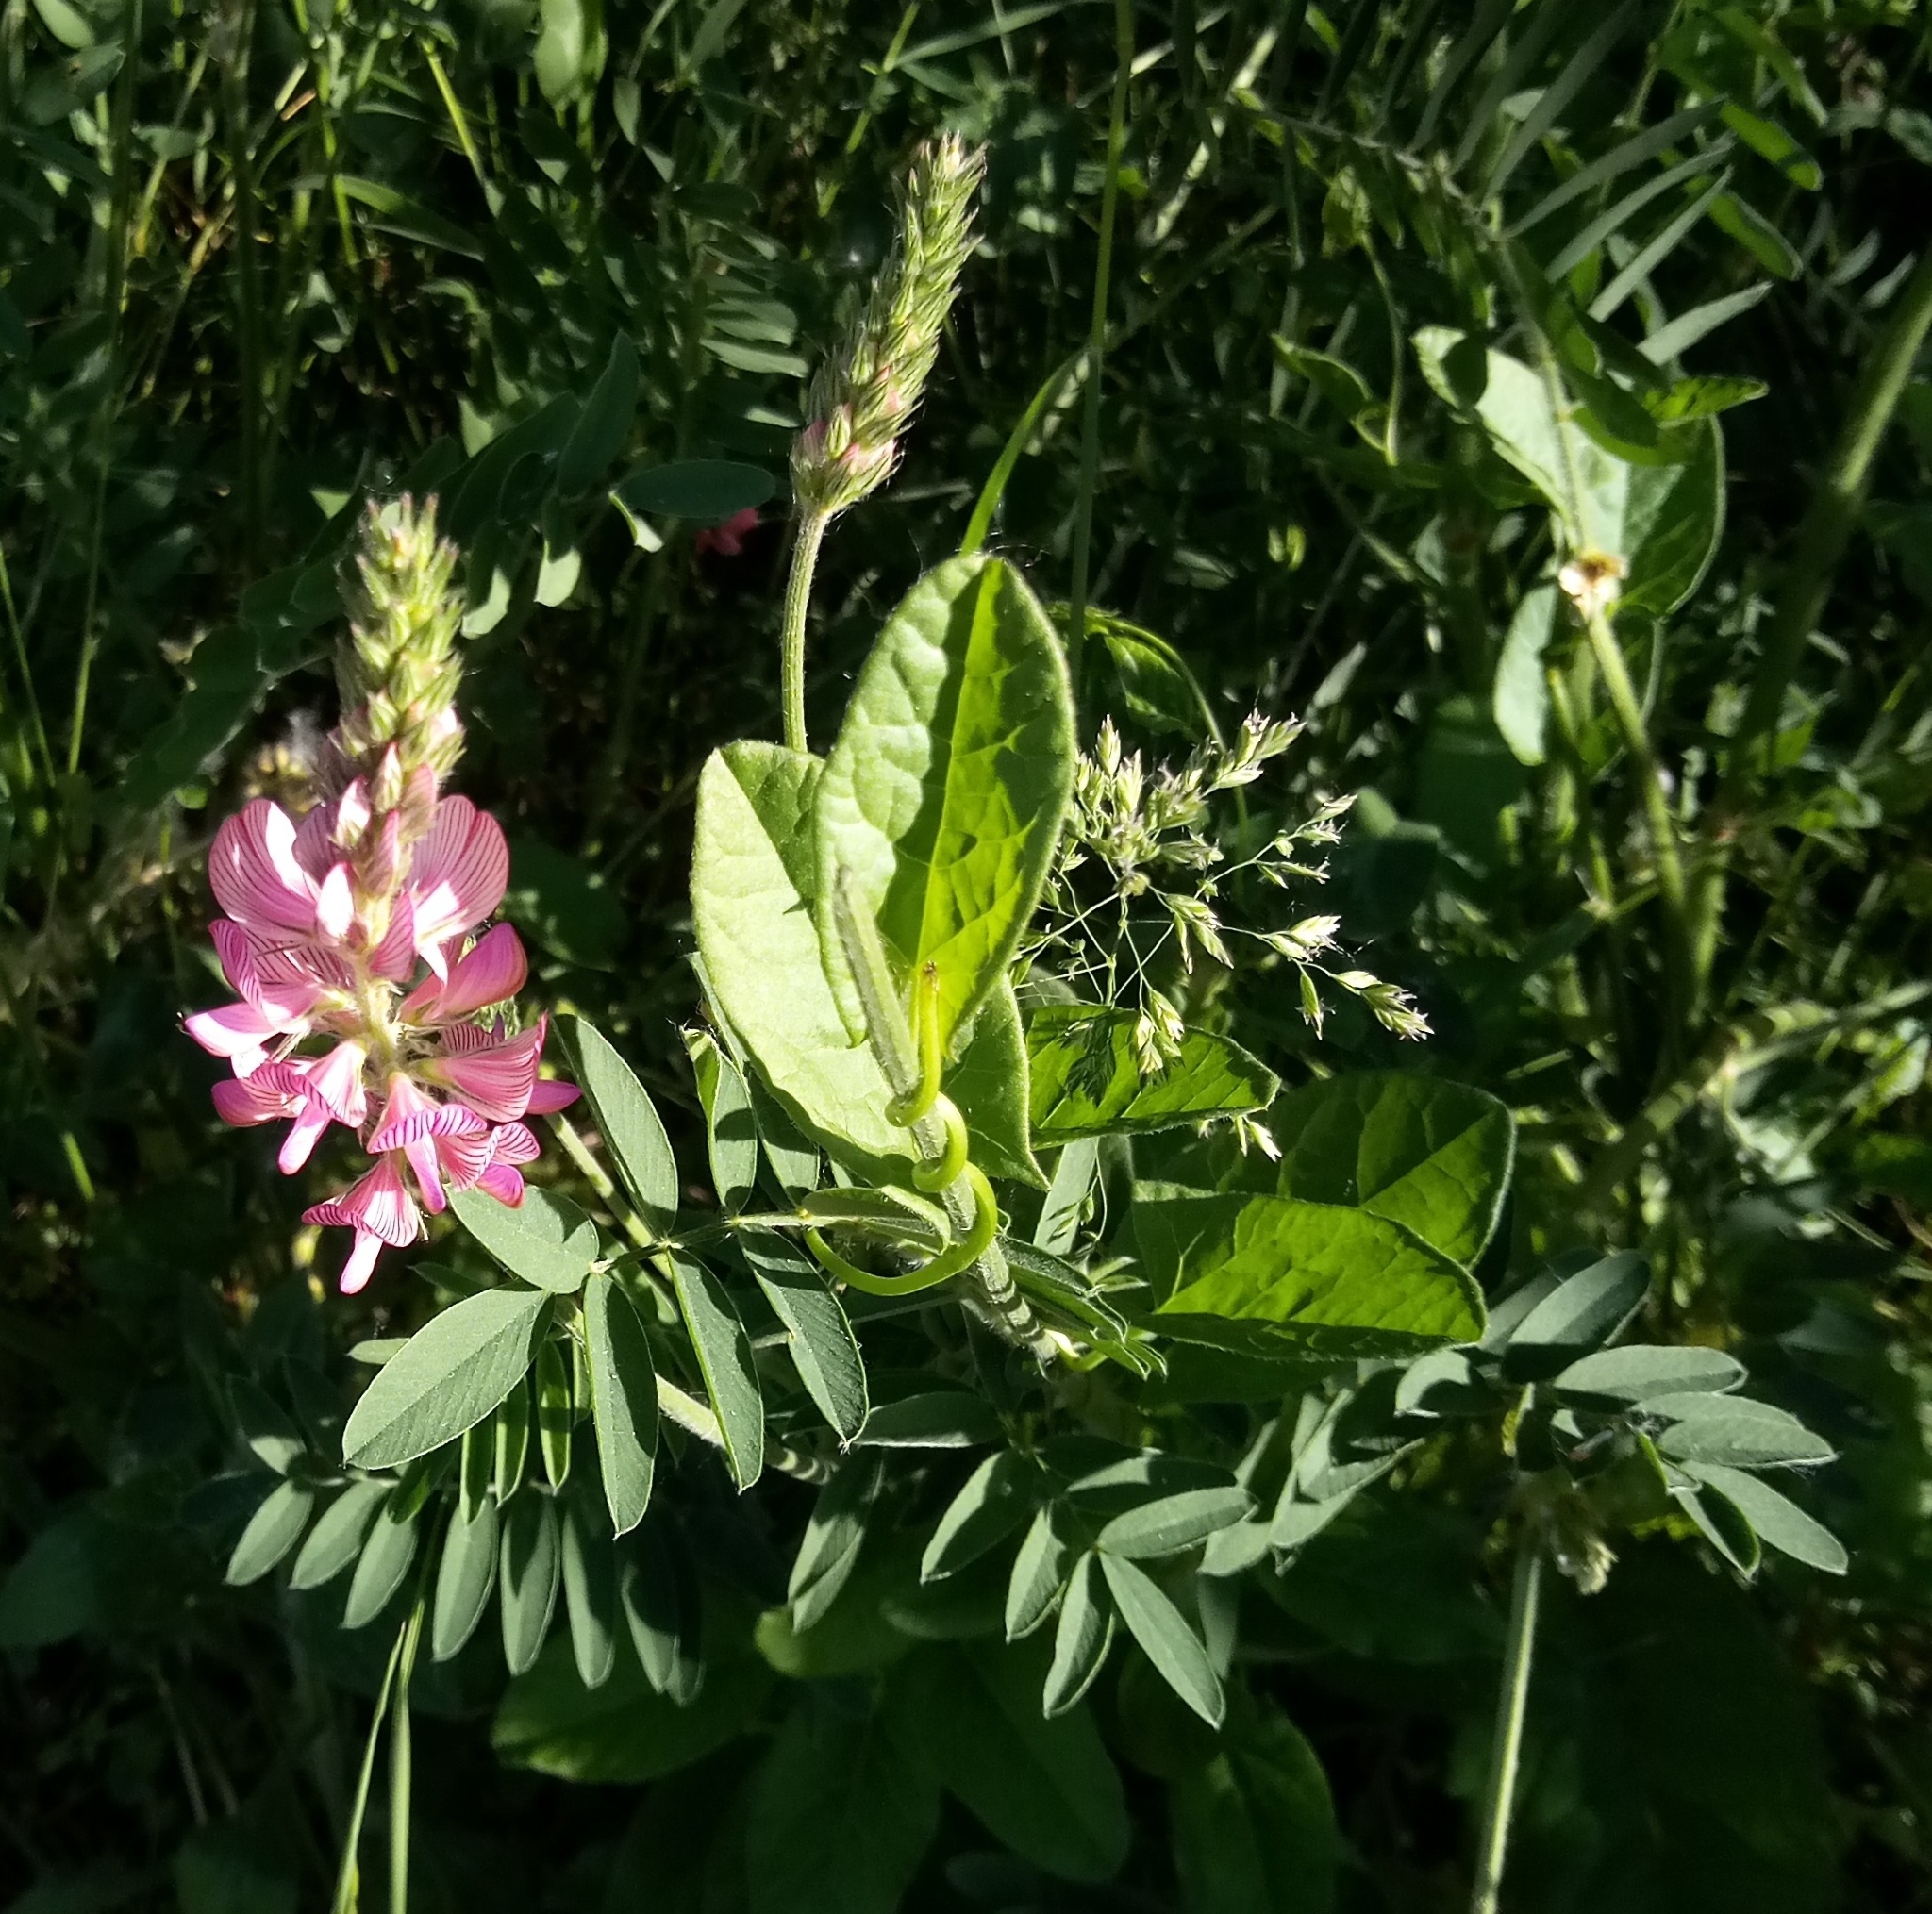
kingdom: Plantae
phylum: Tracheophyta
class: Magnoliopsida
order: Fabales
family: Fabaceae
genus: Onobrychis
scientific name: Onobrychis viciifolia
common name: Sainfoin
